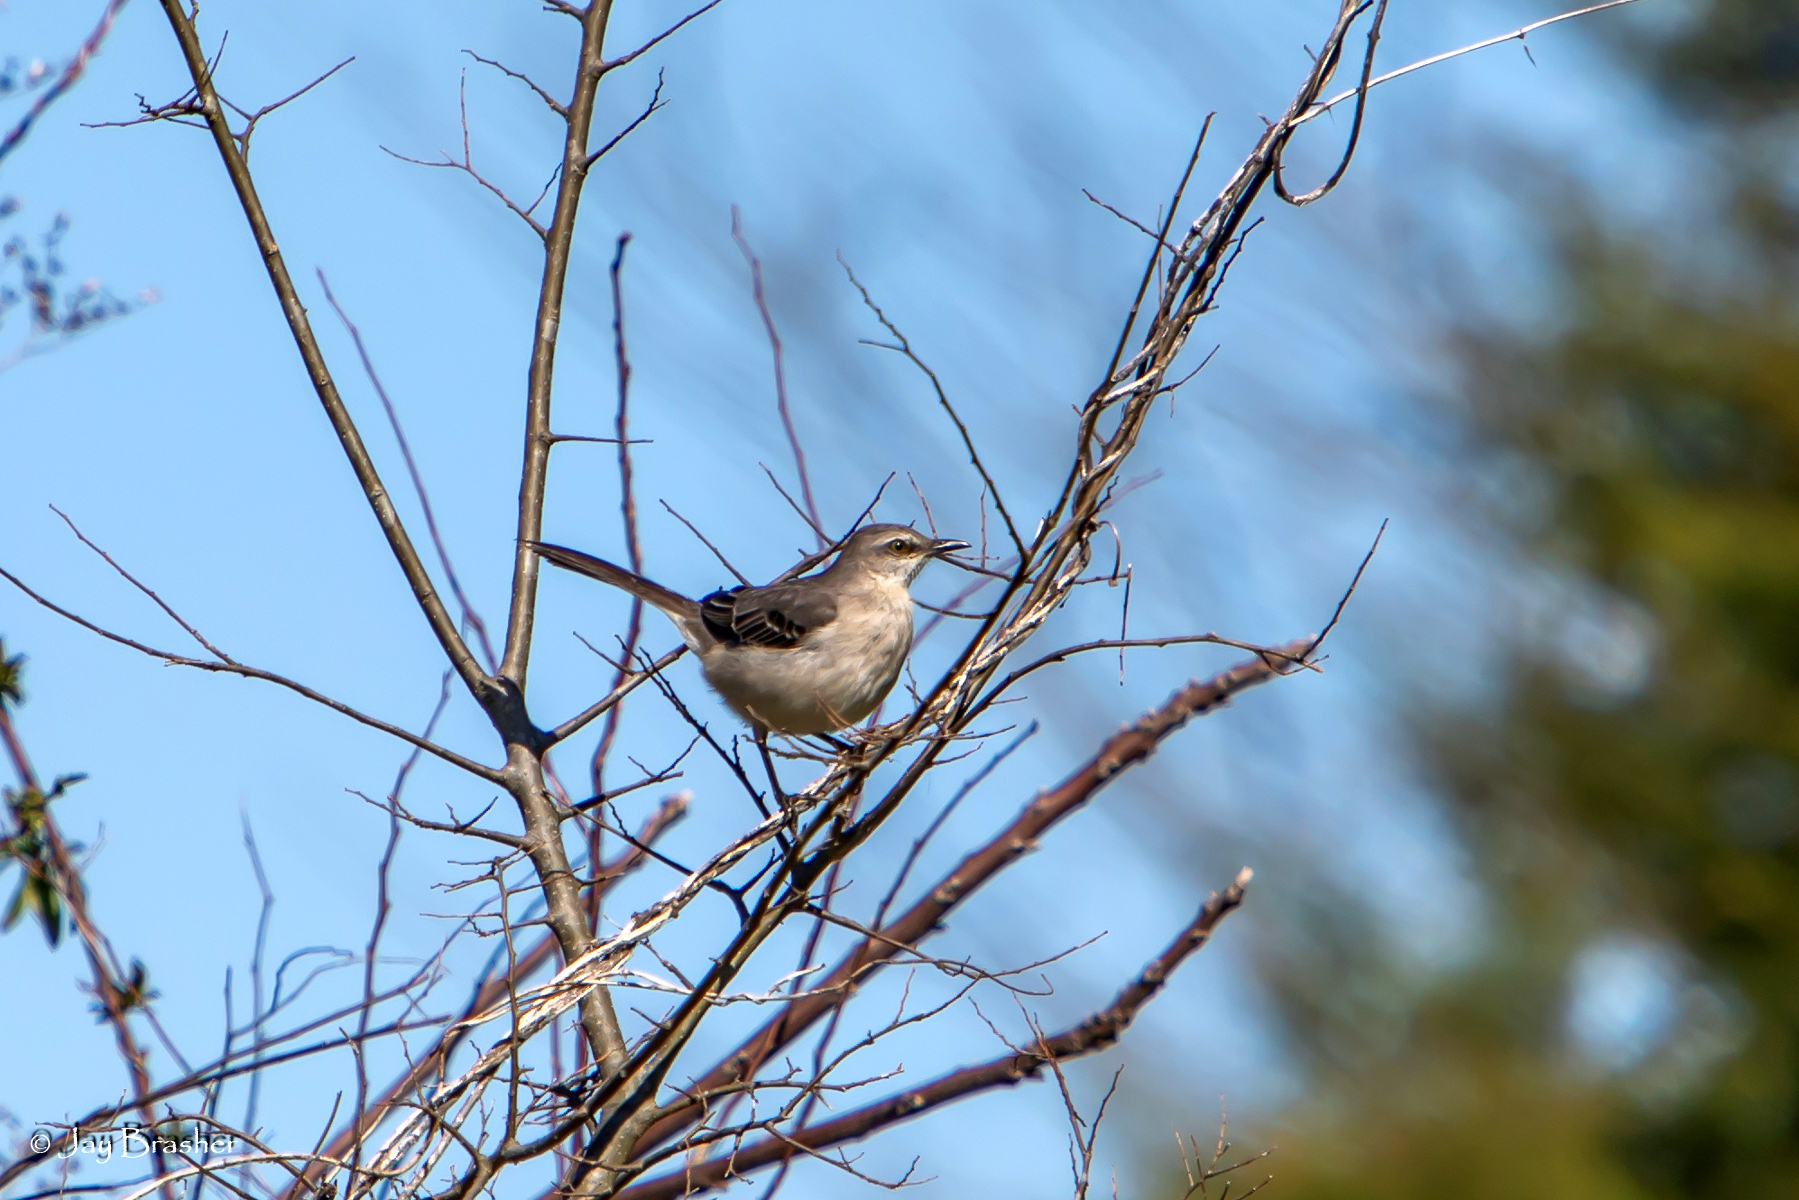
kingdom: Animalia
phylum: Chordata
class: Aves
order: Passeriformes
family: Mimidae
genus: Mimus
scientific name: Mimus polyglottos
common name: Northern mockingbird
